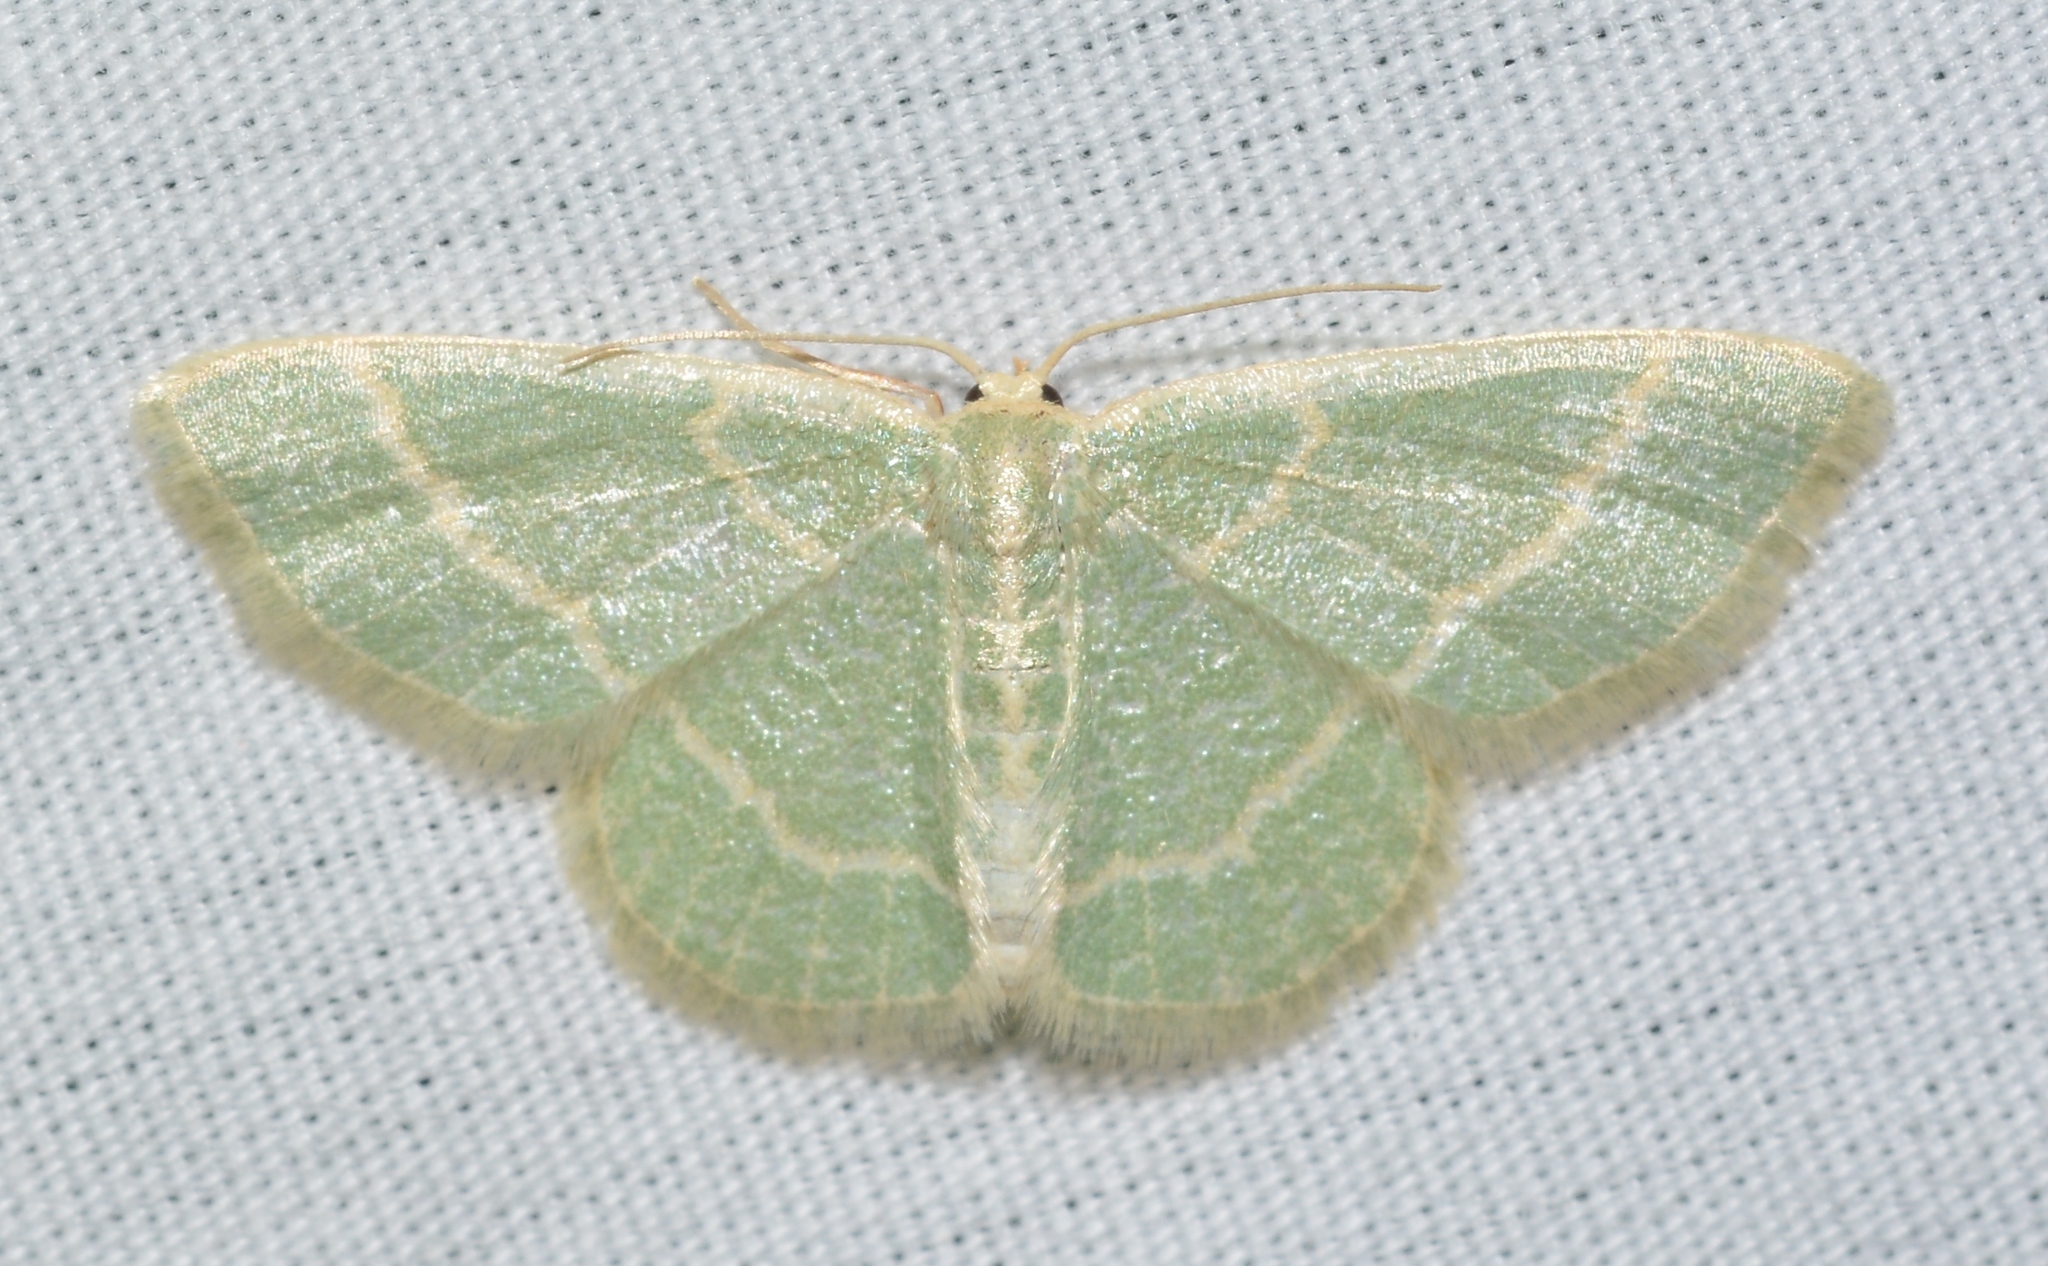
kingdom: Animalia
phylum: Arthropoda
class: Insecta
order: Lepidoptera
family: Geometridae
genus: Chlorochlamys
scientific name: Chlorochlamys chloroleucaria
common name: Blackberry looper
